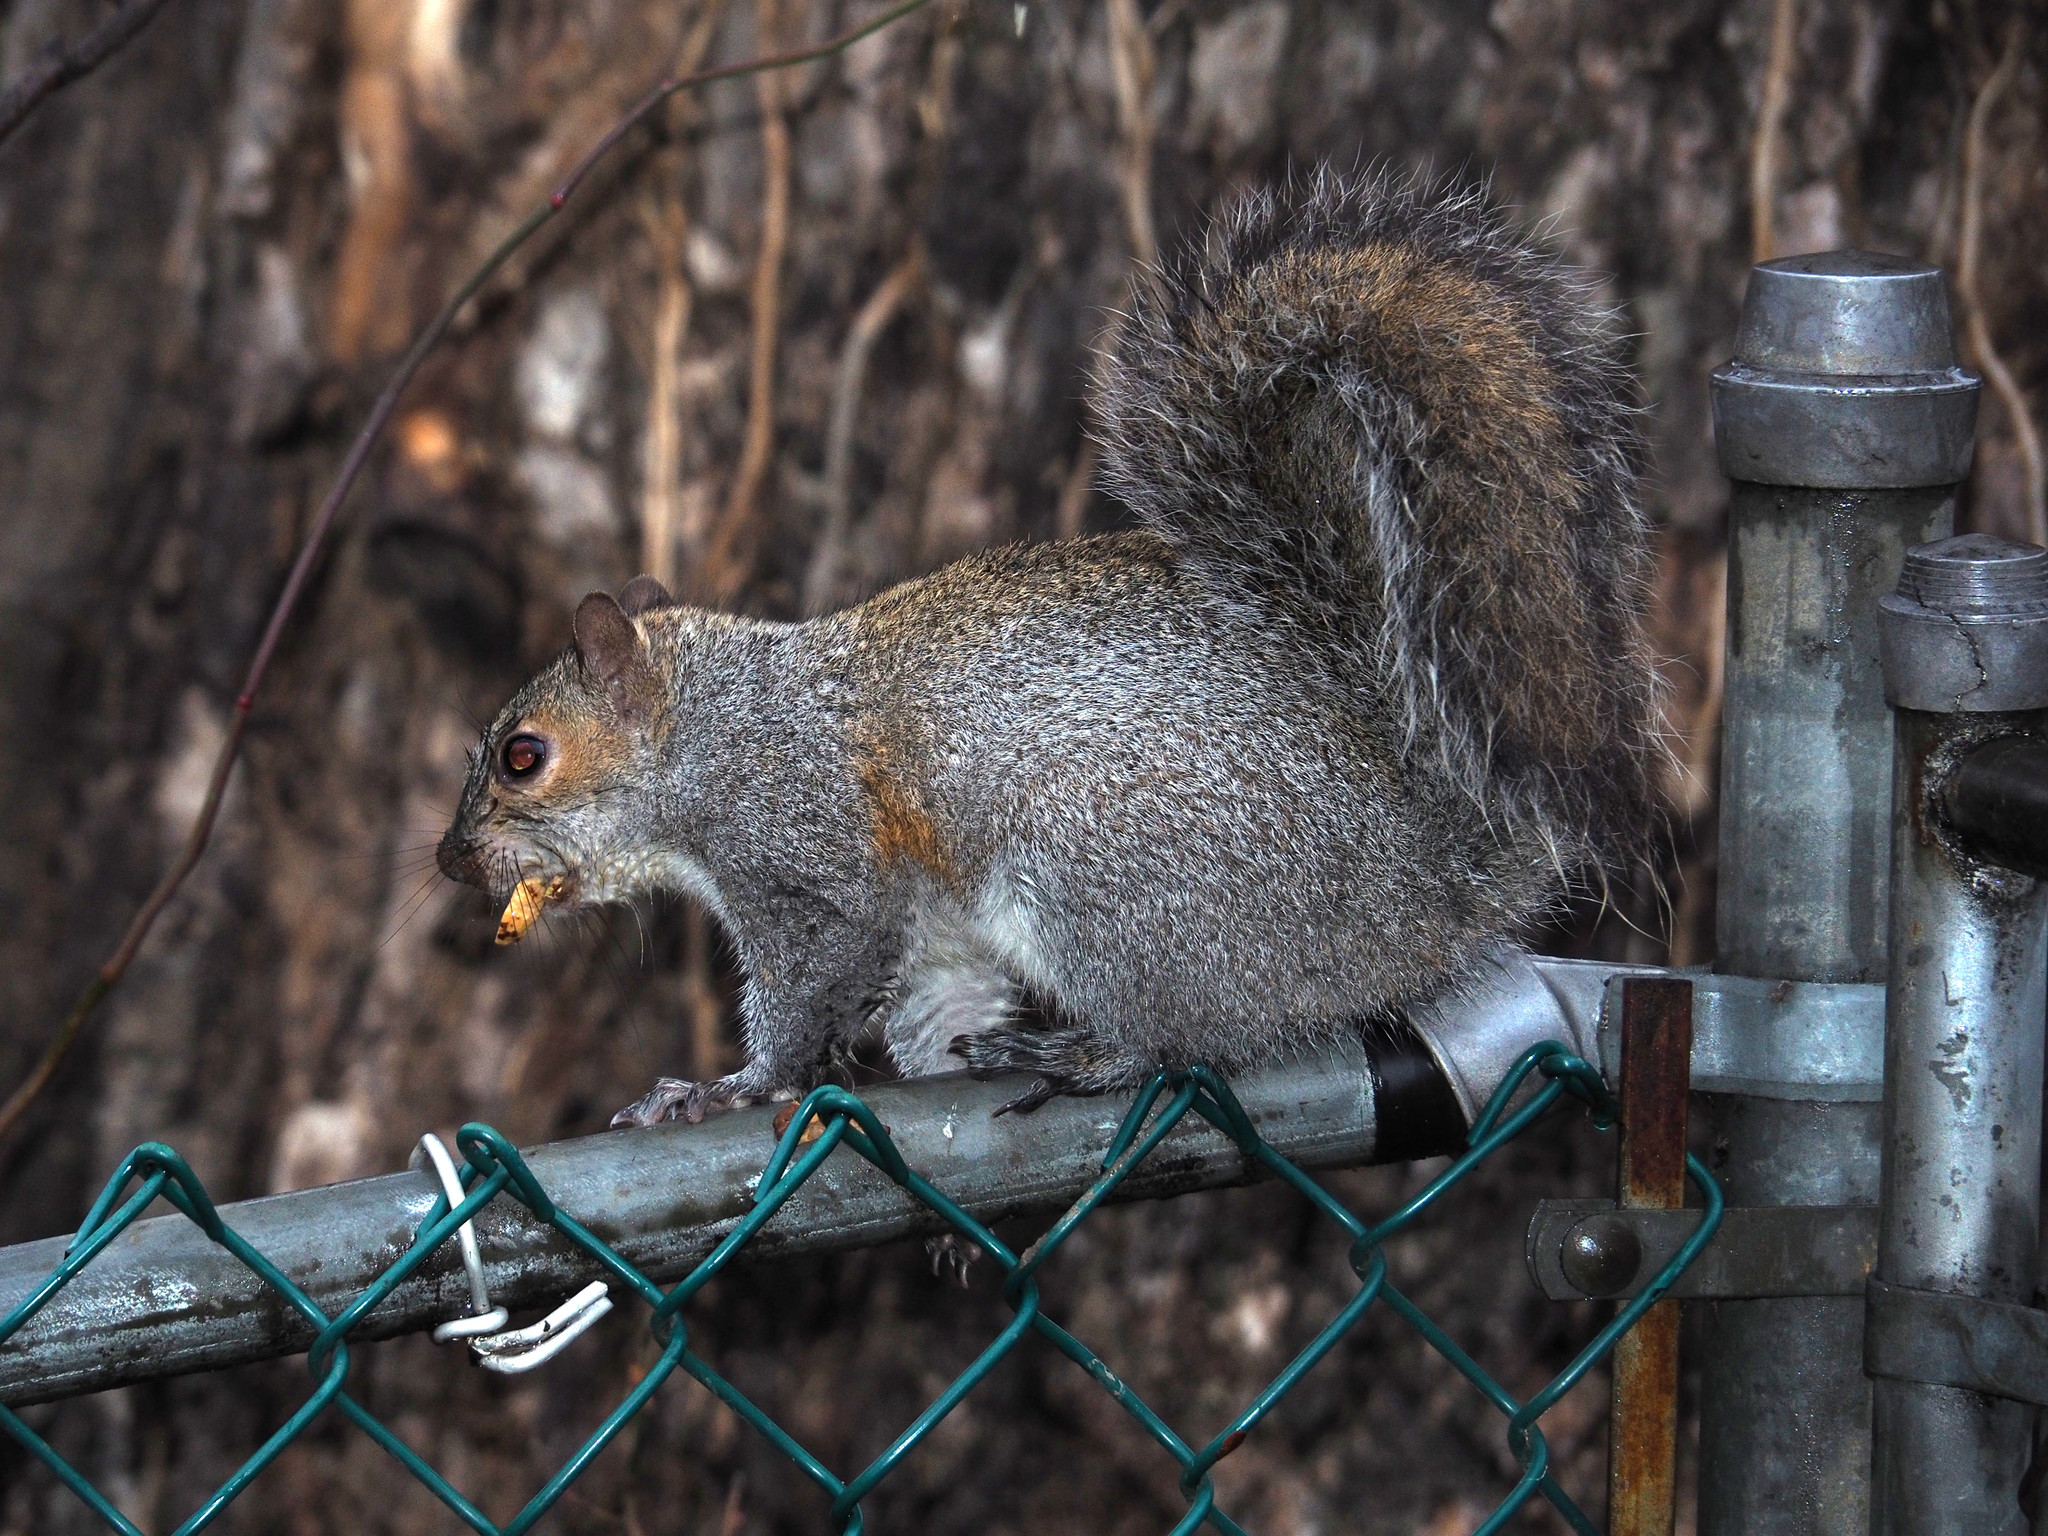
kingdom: Animalia
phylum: Chordata
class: Mammalia
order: Rodentia
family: Sciuridae
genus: Sciurus
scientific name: Sciurus carolinensis
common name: Eastern gray squirrel
